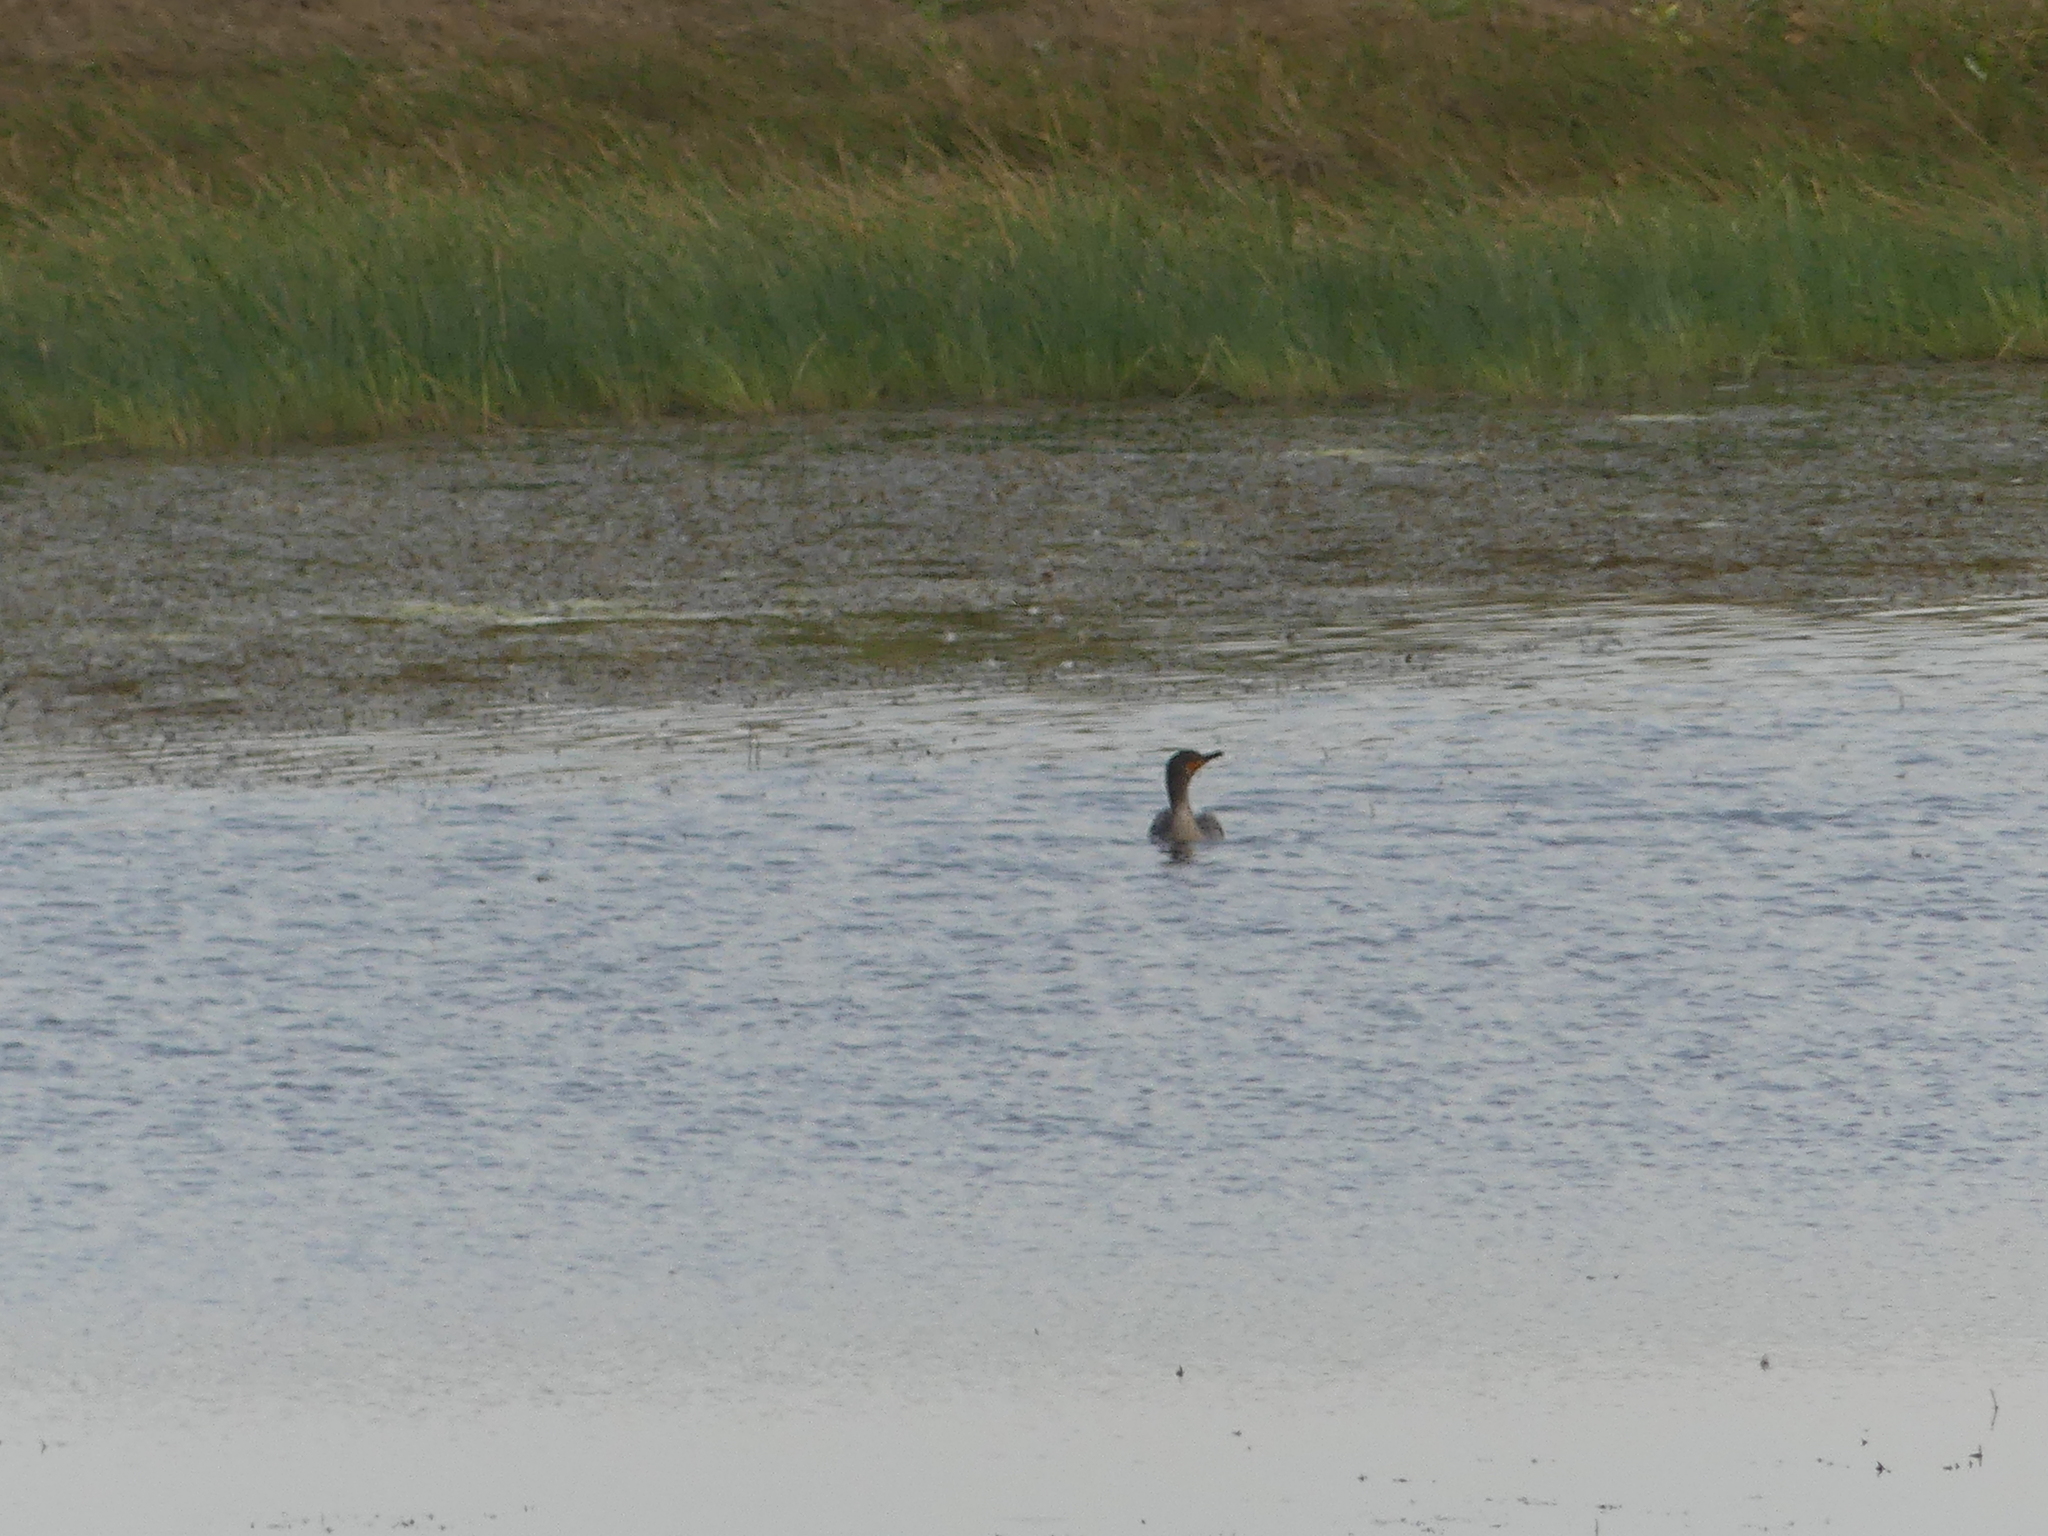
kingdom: Animalia
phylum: Chordata
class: Aves
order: Suliformes
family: Phalacrocoracidae
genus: Phalacrocorax
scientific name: Phalacrocorax auritus
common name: Double-crested cormorant
